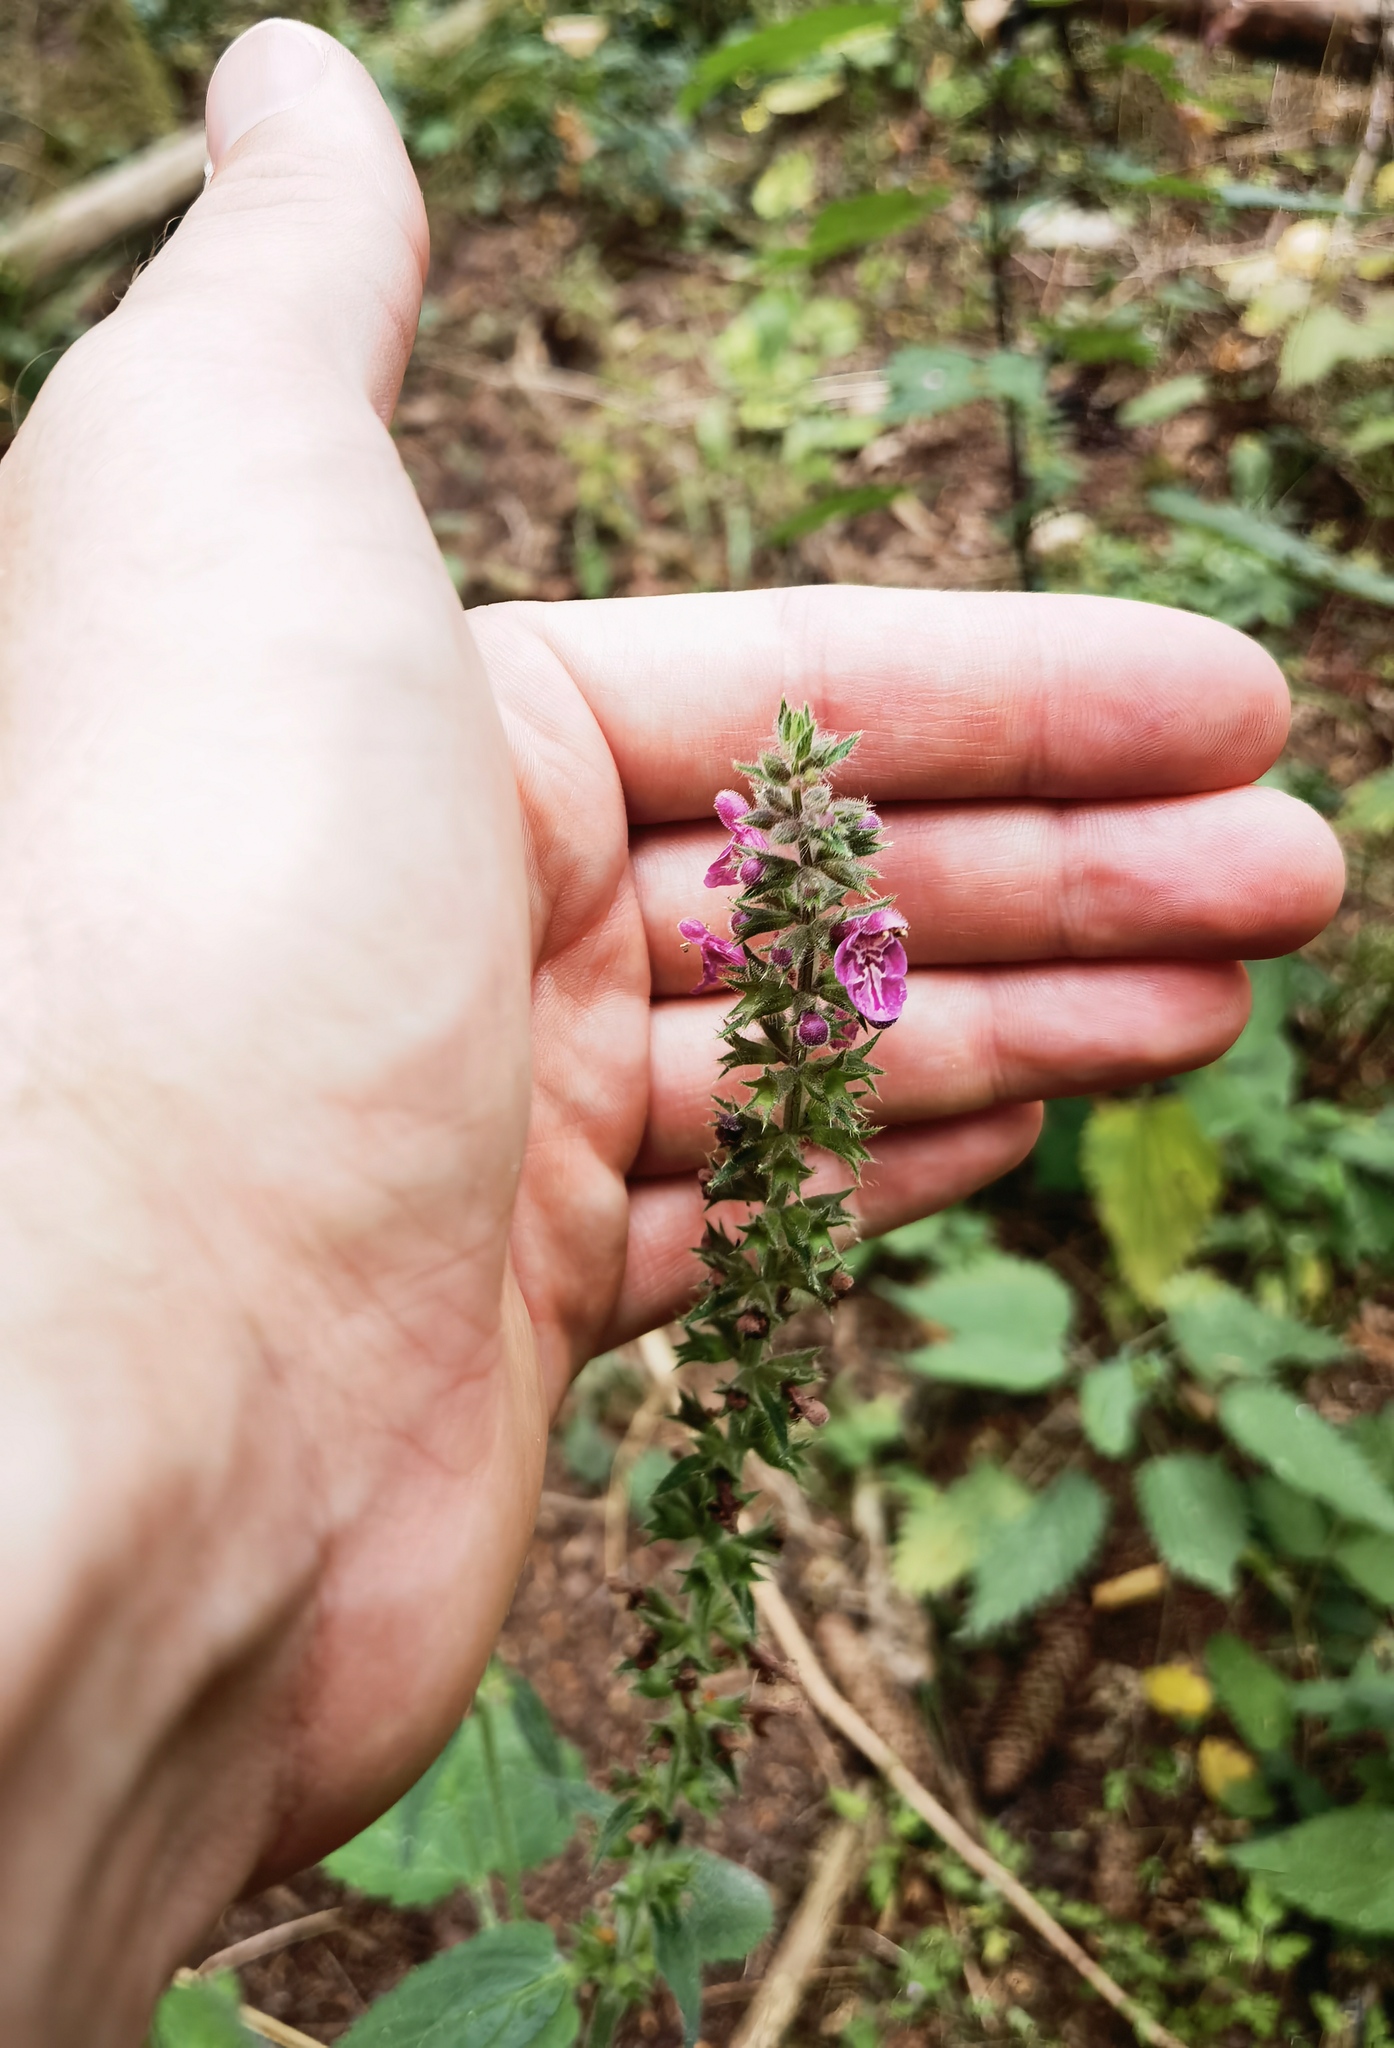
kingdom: Plantae
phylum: Tracheophyta
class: Magnoliopsida
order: Lamiales
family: Lamiaceae
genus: Stachys
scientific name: Stachys sylvatica
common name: Hedge woundwort
